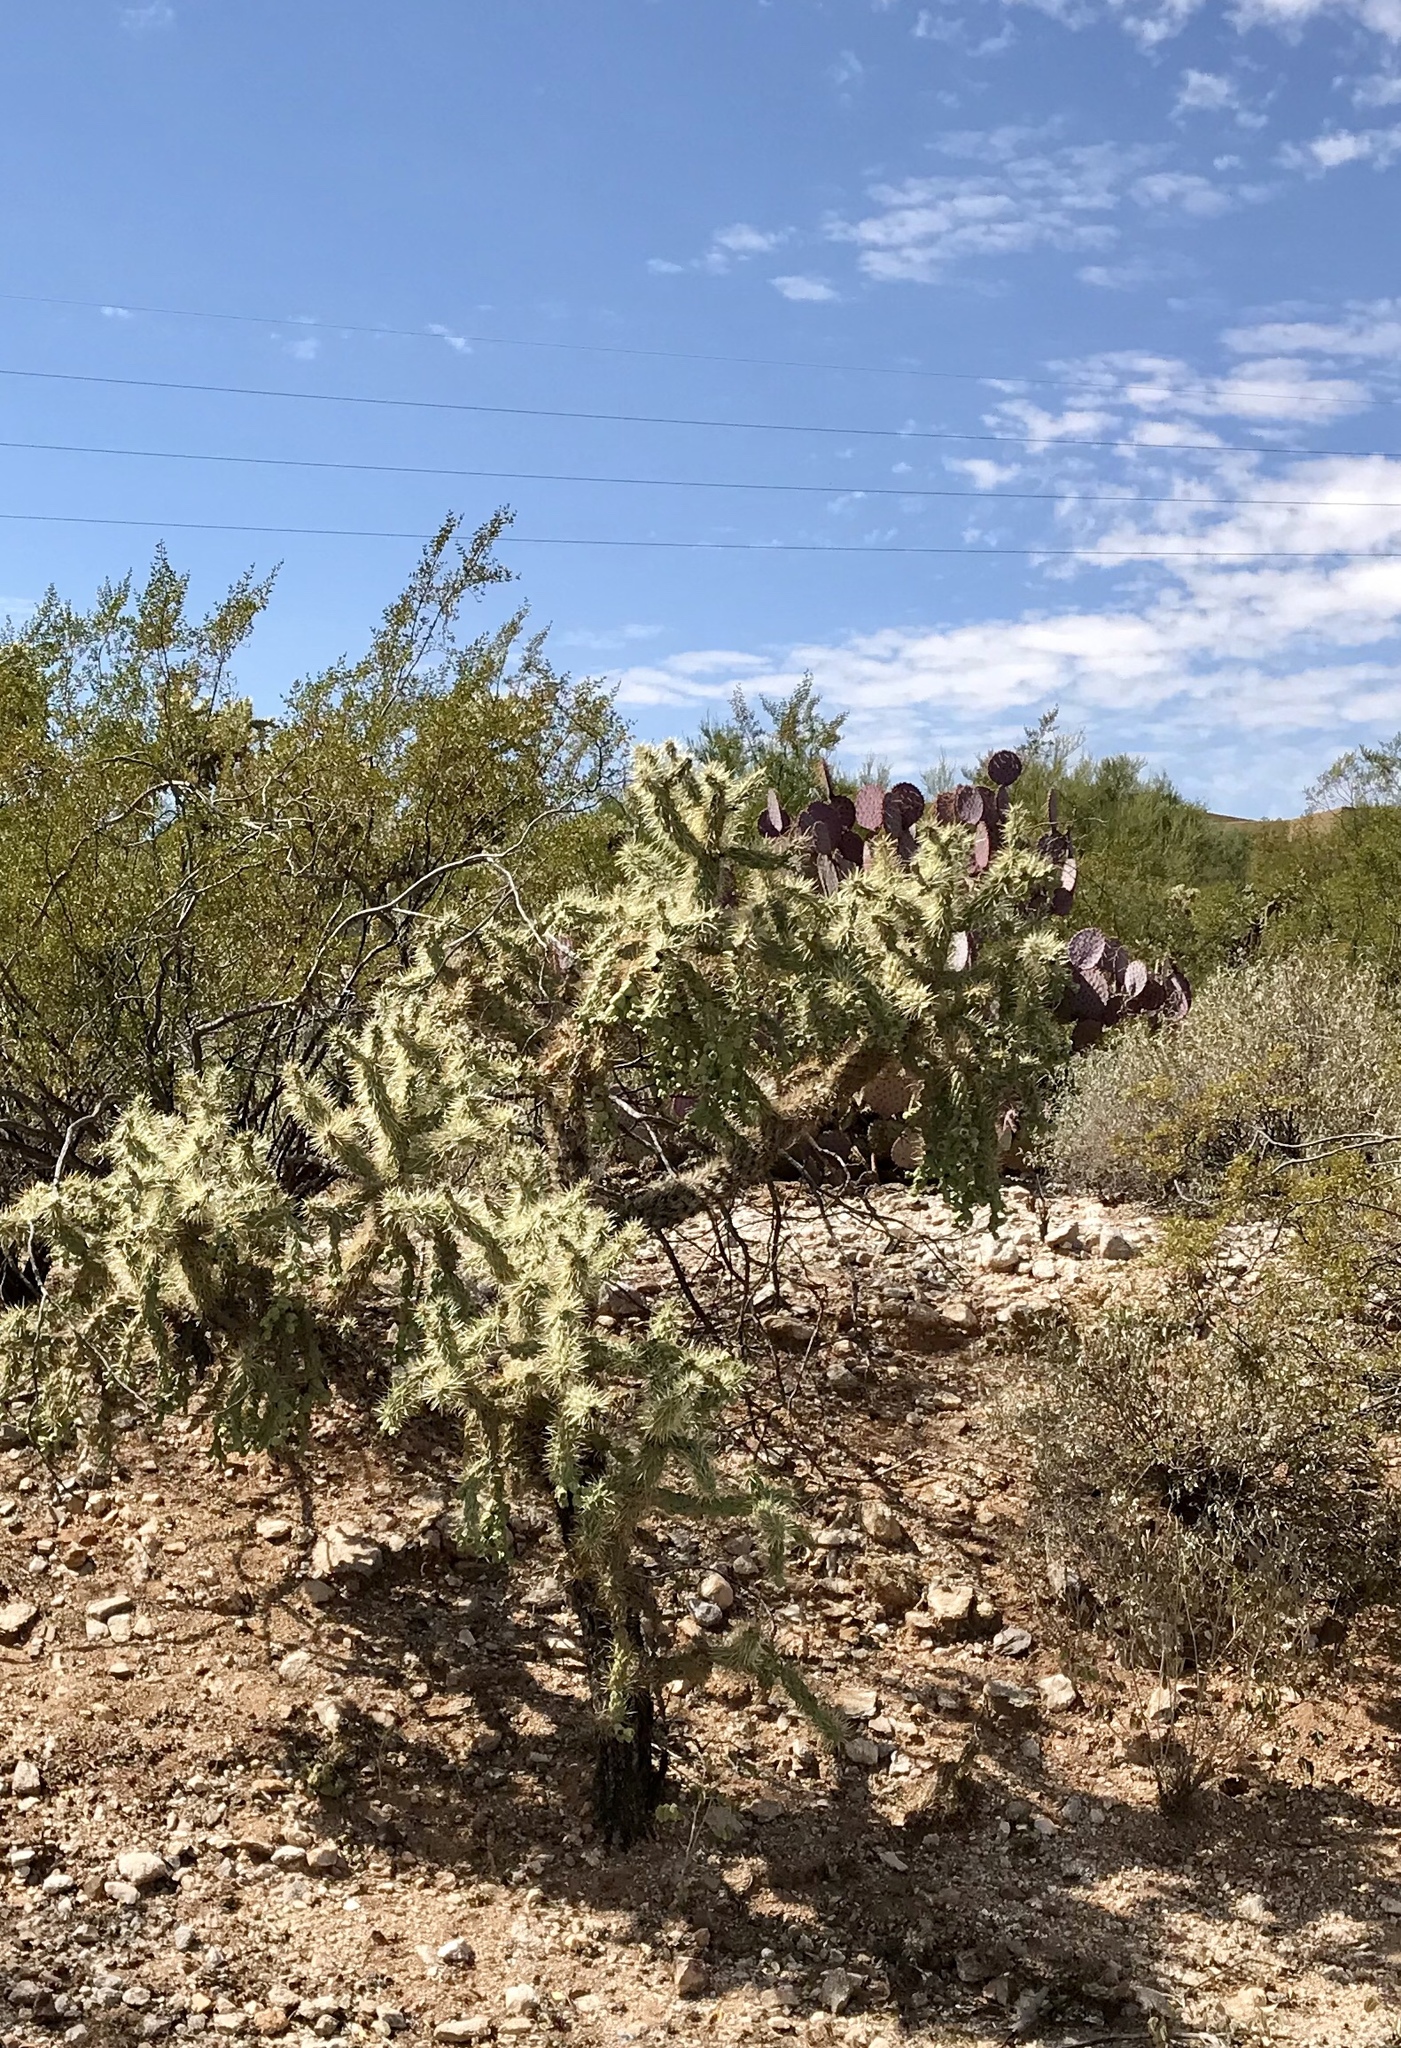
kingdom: Plantae
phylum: Tracheophyta
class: Magnoliopsida
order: Caryophyllales
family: Cactaceae
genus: Cylindropuntia
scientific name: Cylindropuntia fulgida
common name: Jumping cholla
